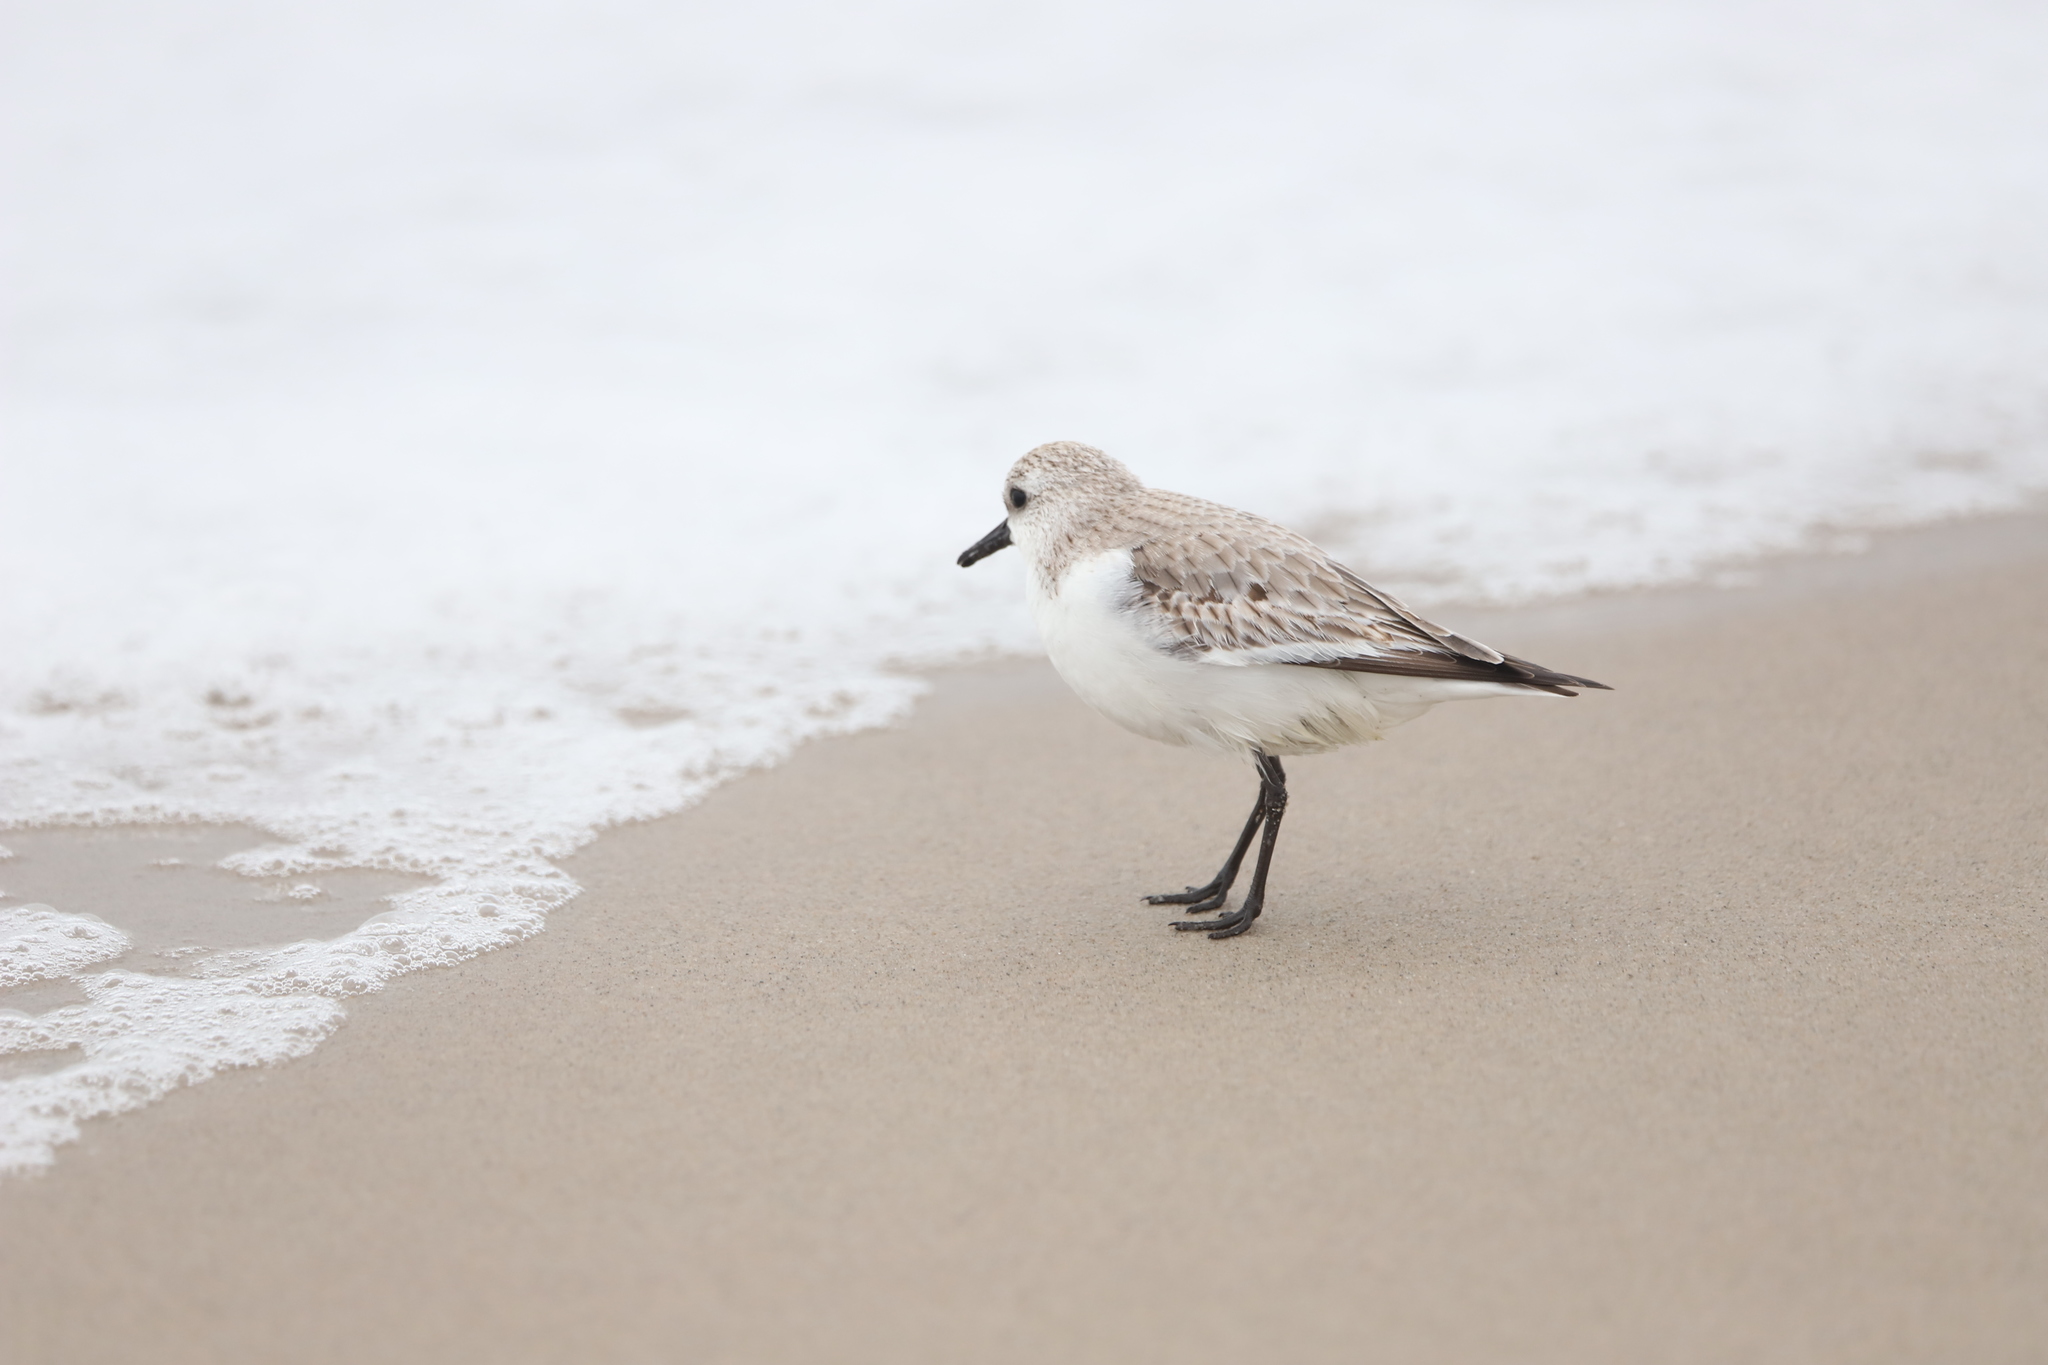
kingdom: Animalia
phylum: Chordata
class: Aves
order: Charadriiformes
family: Scolopacidae
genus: Calidris
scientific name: Calidris alba
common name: Sanderling
